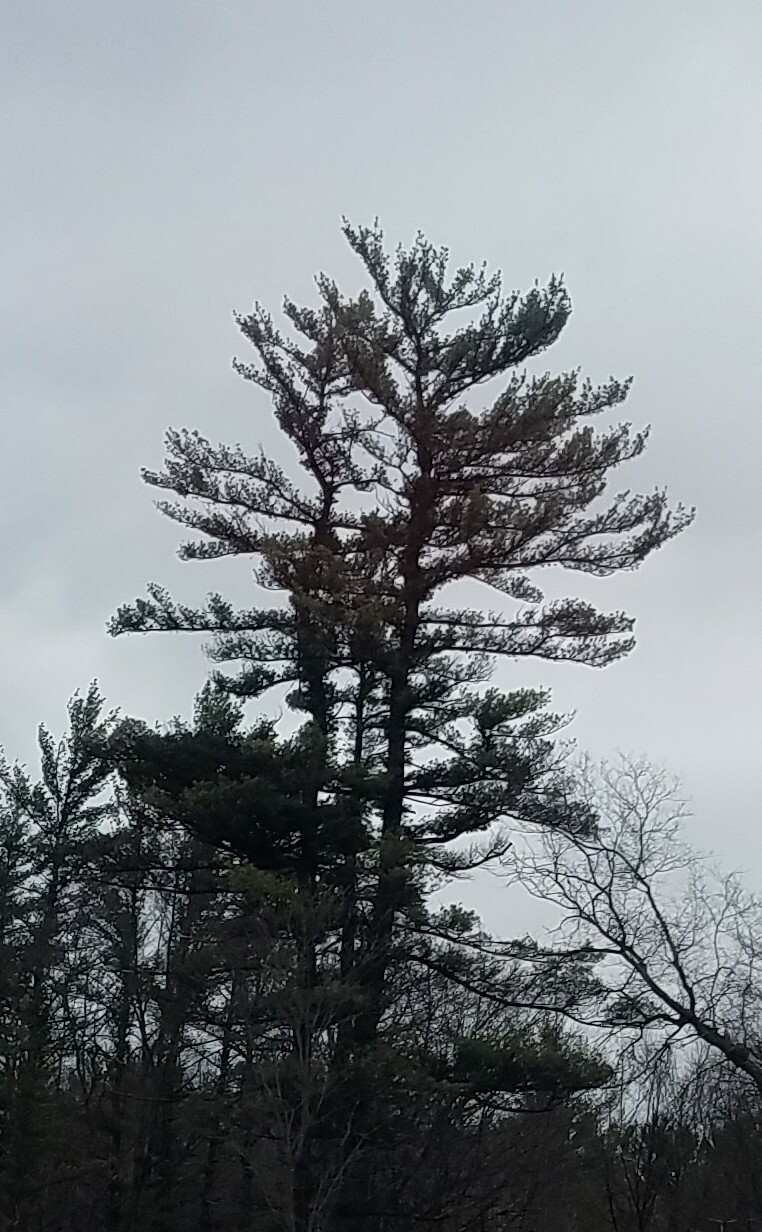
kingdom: Plantae
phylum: Tracheophyta
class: Pinopsida
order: Pinales
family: Pinaceae
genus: Pinus
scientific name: Pinus strobus
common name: Weymouth pine
